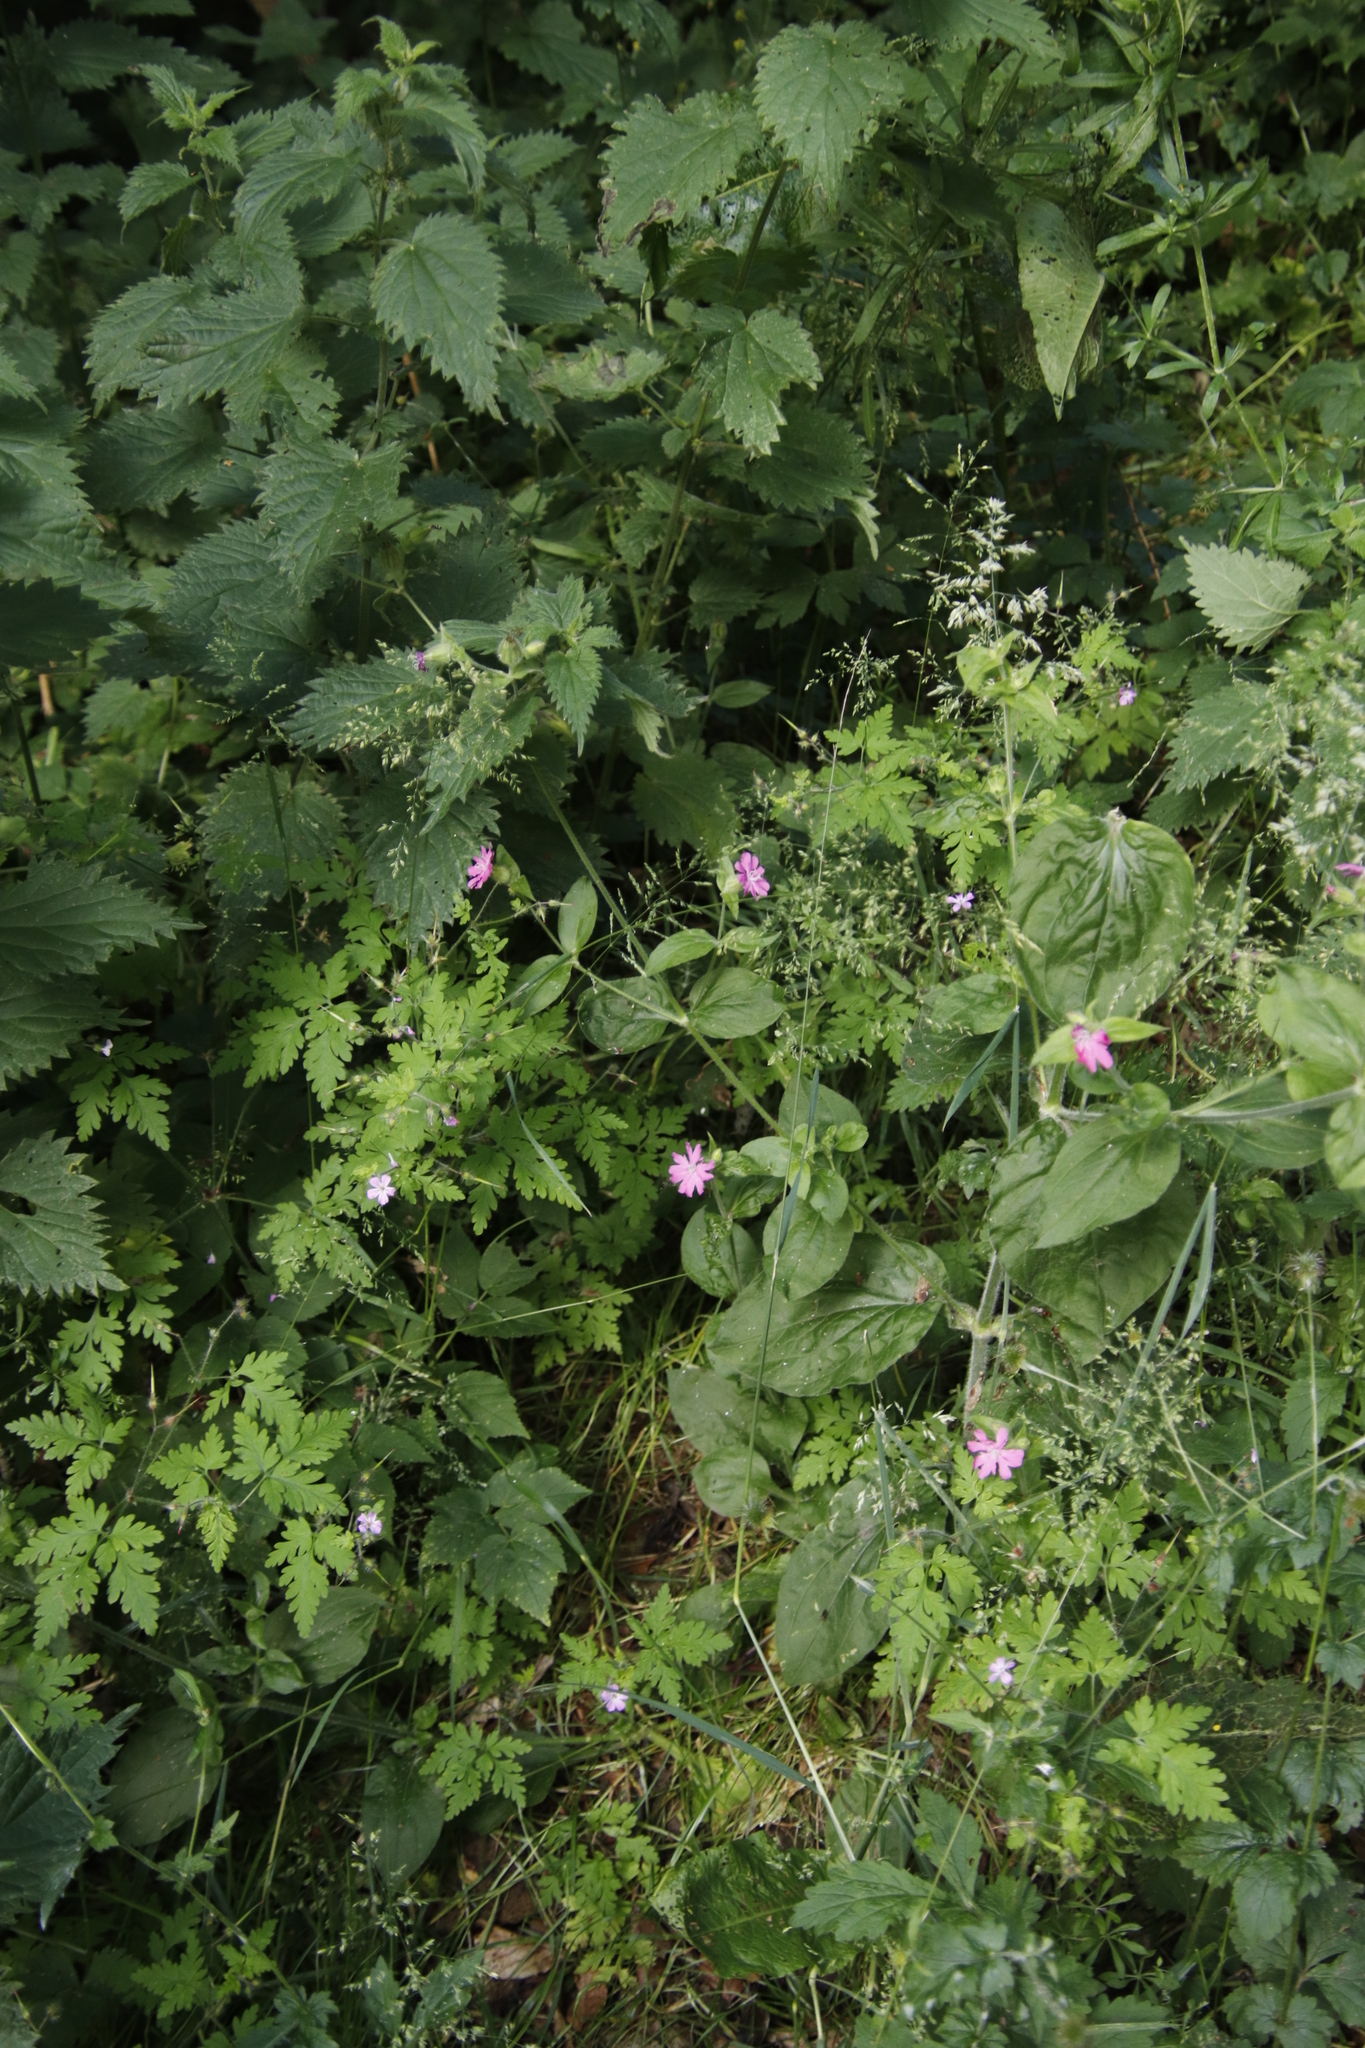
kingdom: Plantae
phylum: Tracheophyta
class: Magnoliopsida
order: Caryophyllales
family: Caryophyllaceae
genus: Silene
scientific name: Silene dioica
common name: Red campion
